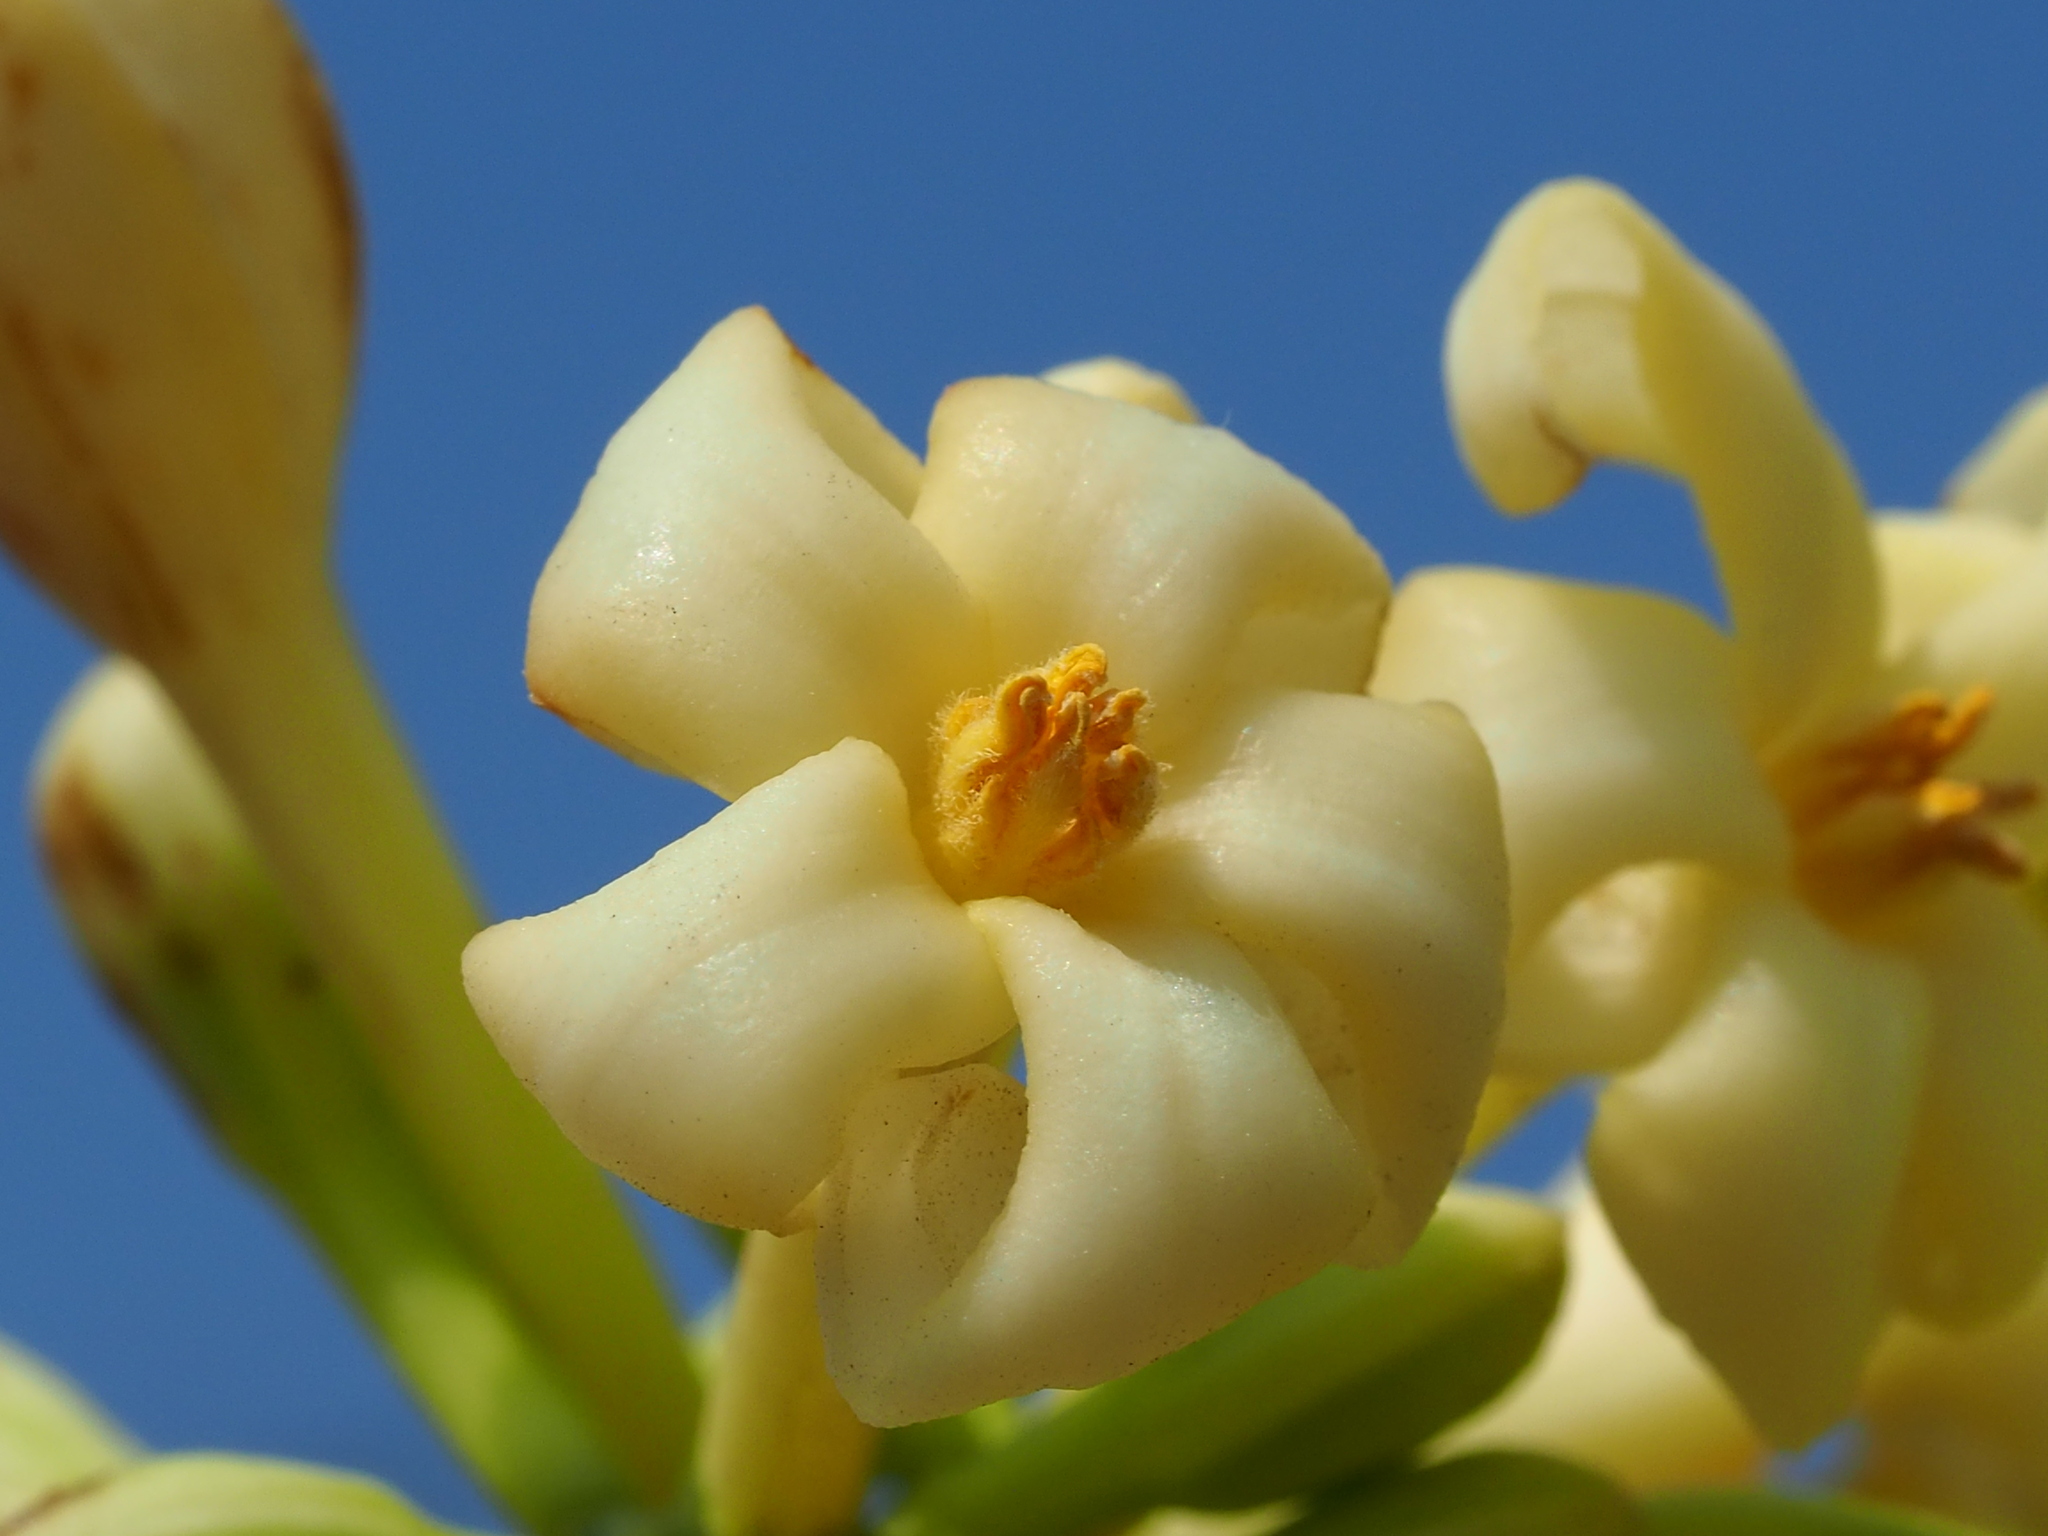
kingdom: Plantae
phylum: Tracheophyta
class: Magnoliopsida
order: Brassicales
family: Caricaceae
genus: Carica
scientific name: Carica papaya
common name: Papaya
